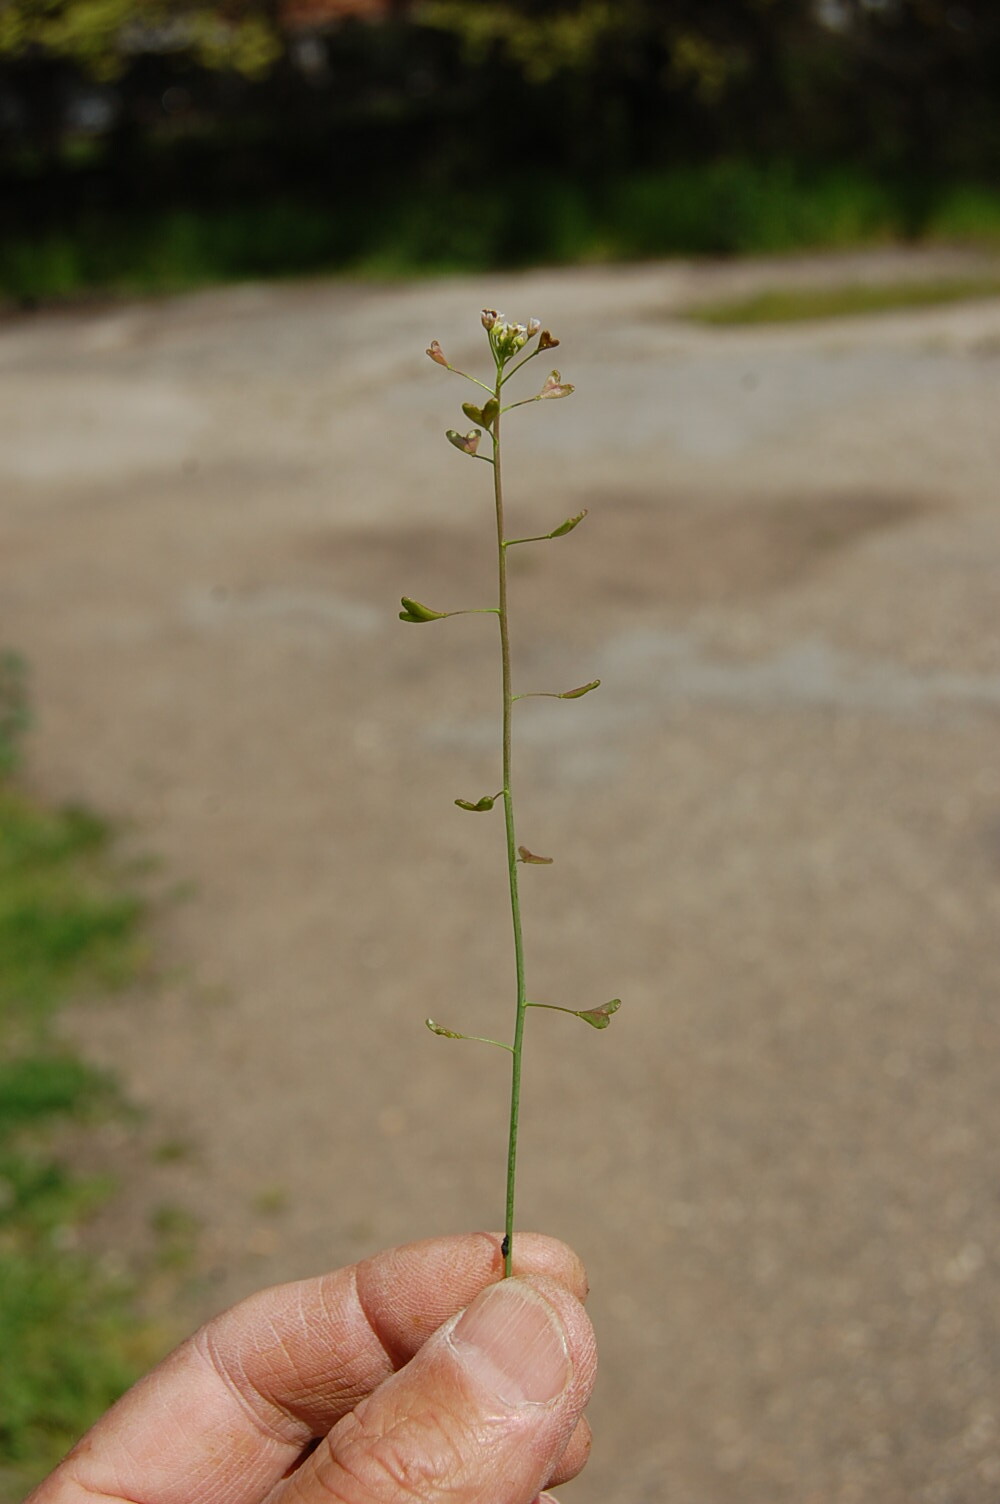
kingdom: Plantae
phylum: Tracheophyta
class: Magnoliopsida
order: Brassicales
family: Brassicaceae
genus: Capsella
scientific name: Capsella rubella
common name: Pink shepherd's-purse
